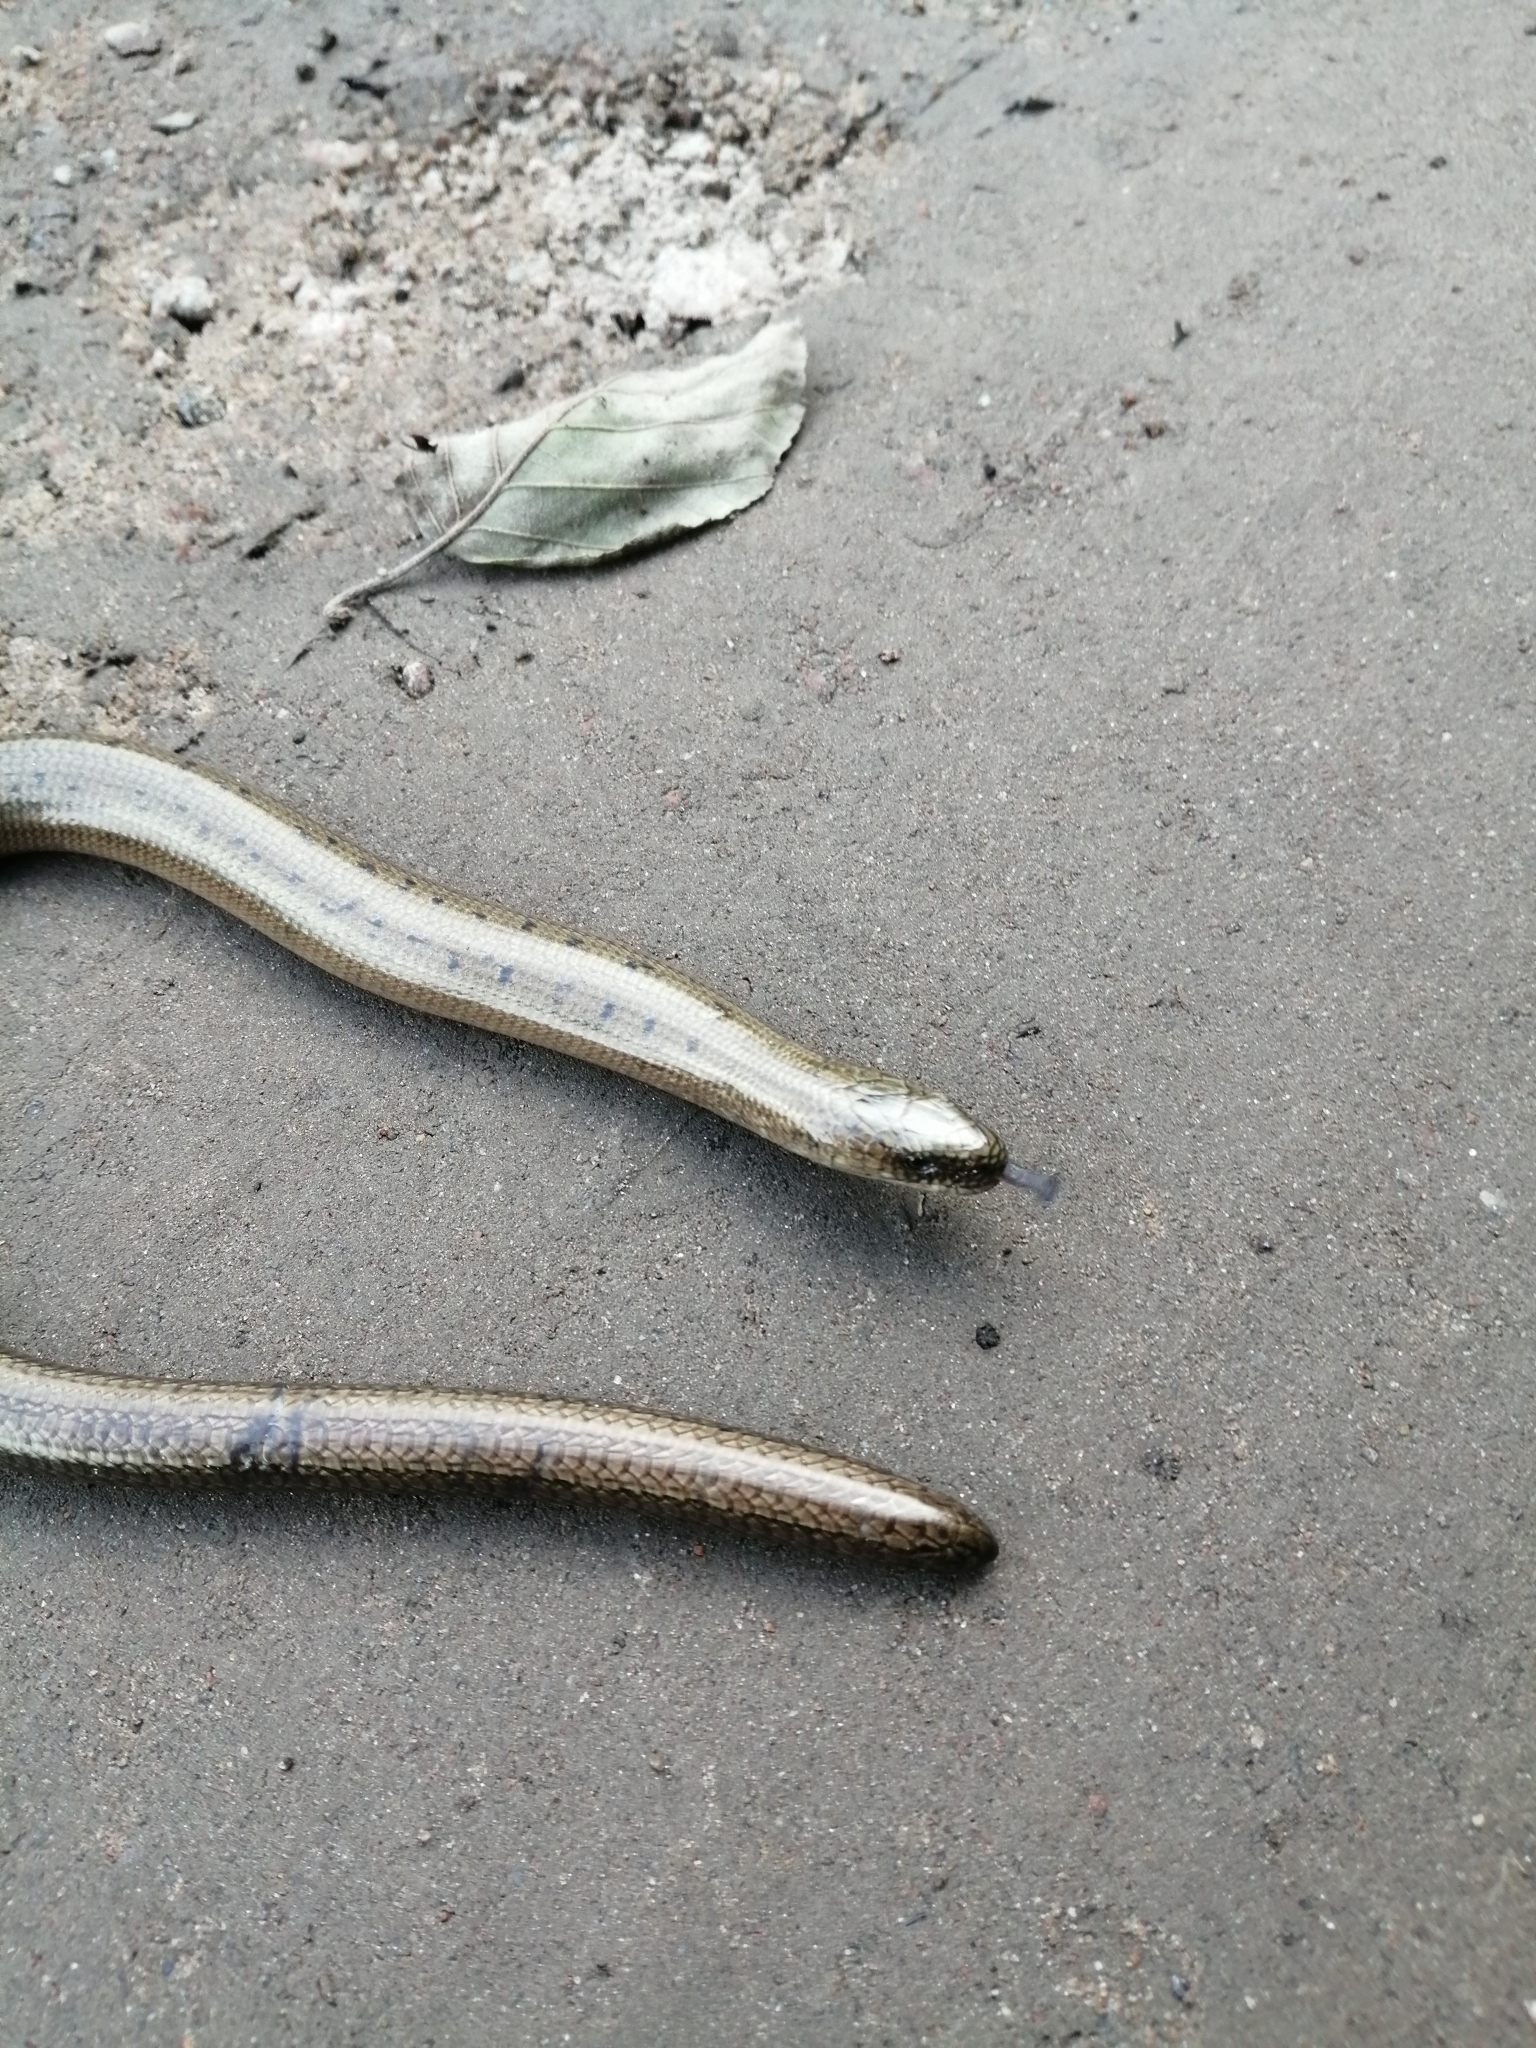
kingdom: Animalia
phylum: Chordata
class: Squamata
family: Anguidae
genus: Anguis
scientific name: Anguis colchica
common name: Slow worm
